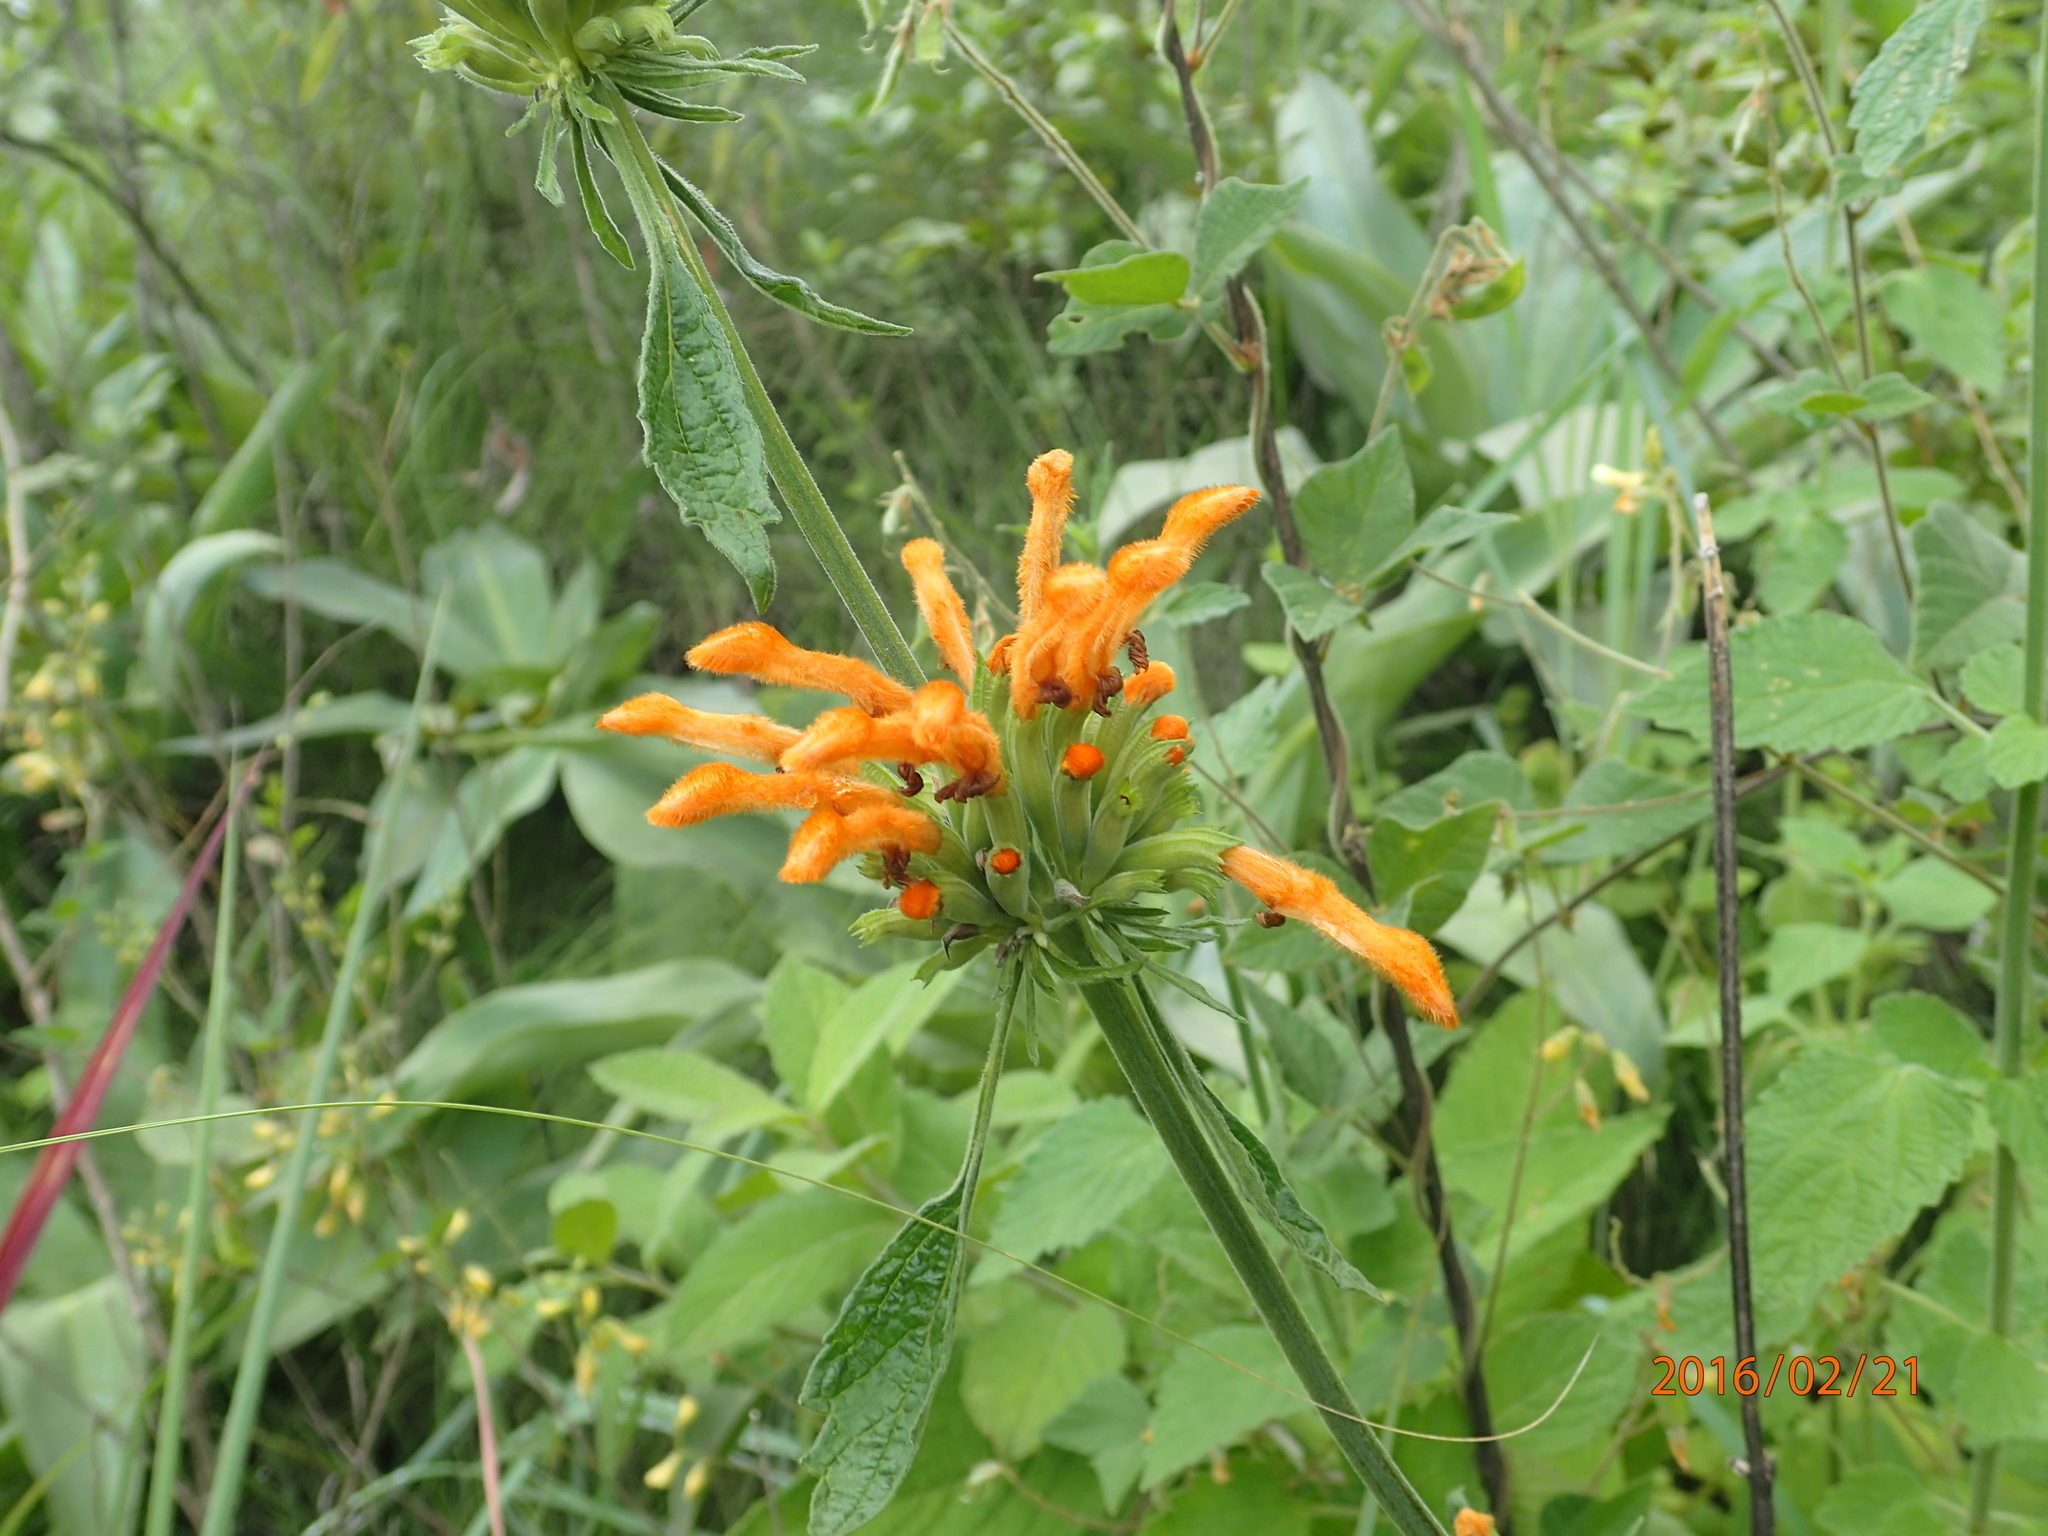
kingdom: Plantae
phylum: Tracheophyta
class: Magnoliopsida
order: Lamiales
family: Lamiaceae
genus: Leonotis
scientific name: Leonotis ocymifolia
